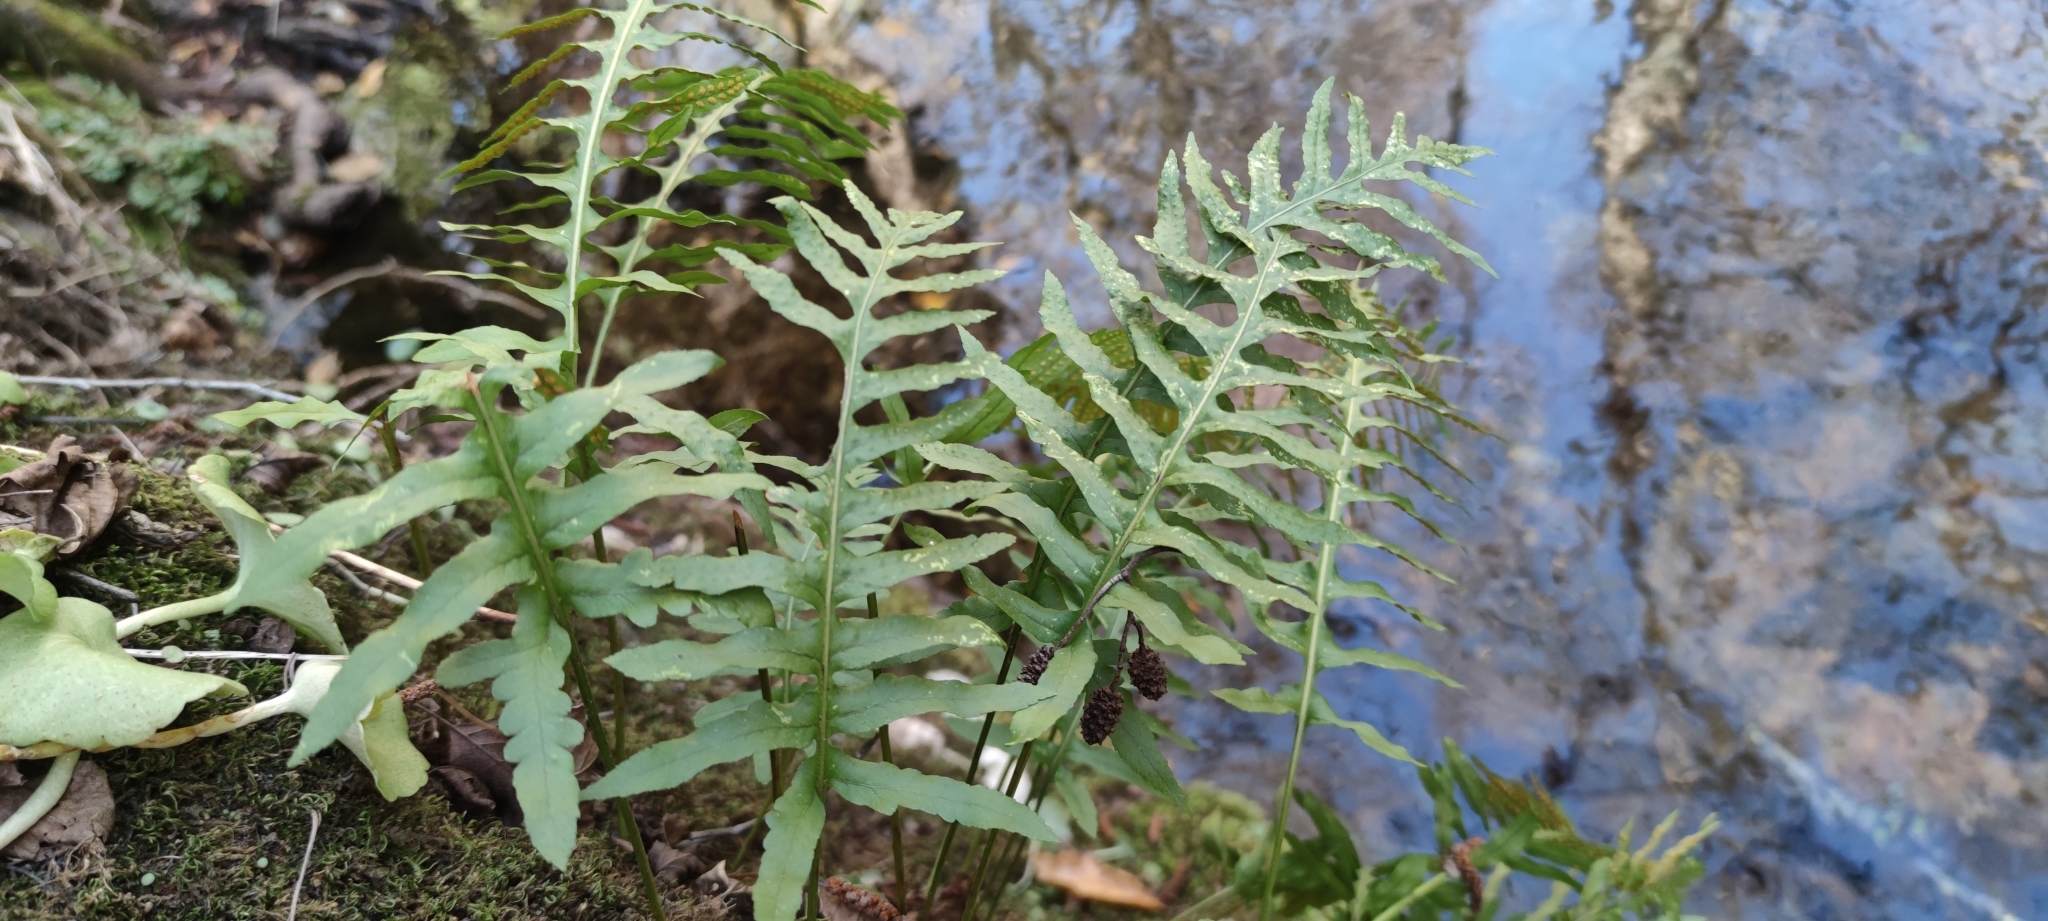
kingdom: Plantae
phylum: Tracheophyta
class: Polypodiopsida
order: Polypodiales
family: Polypodiaceae
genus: Polypodium
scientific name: Polypodium cambricum
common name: Southern polypody
